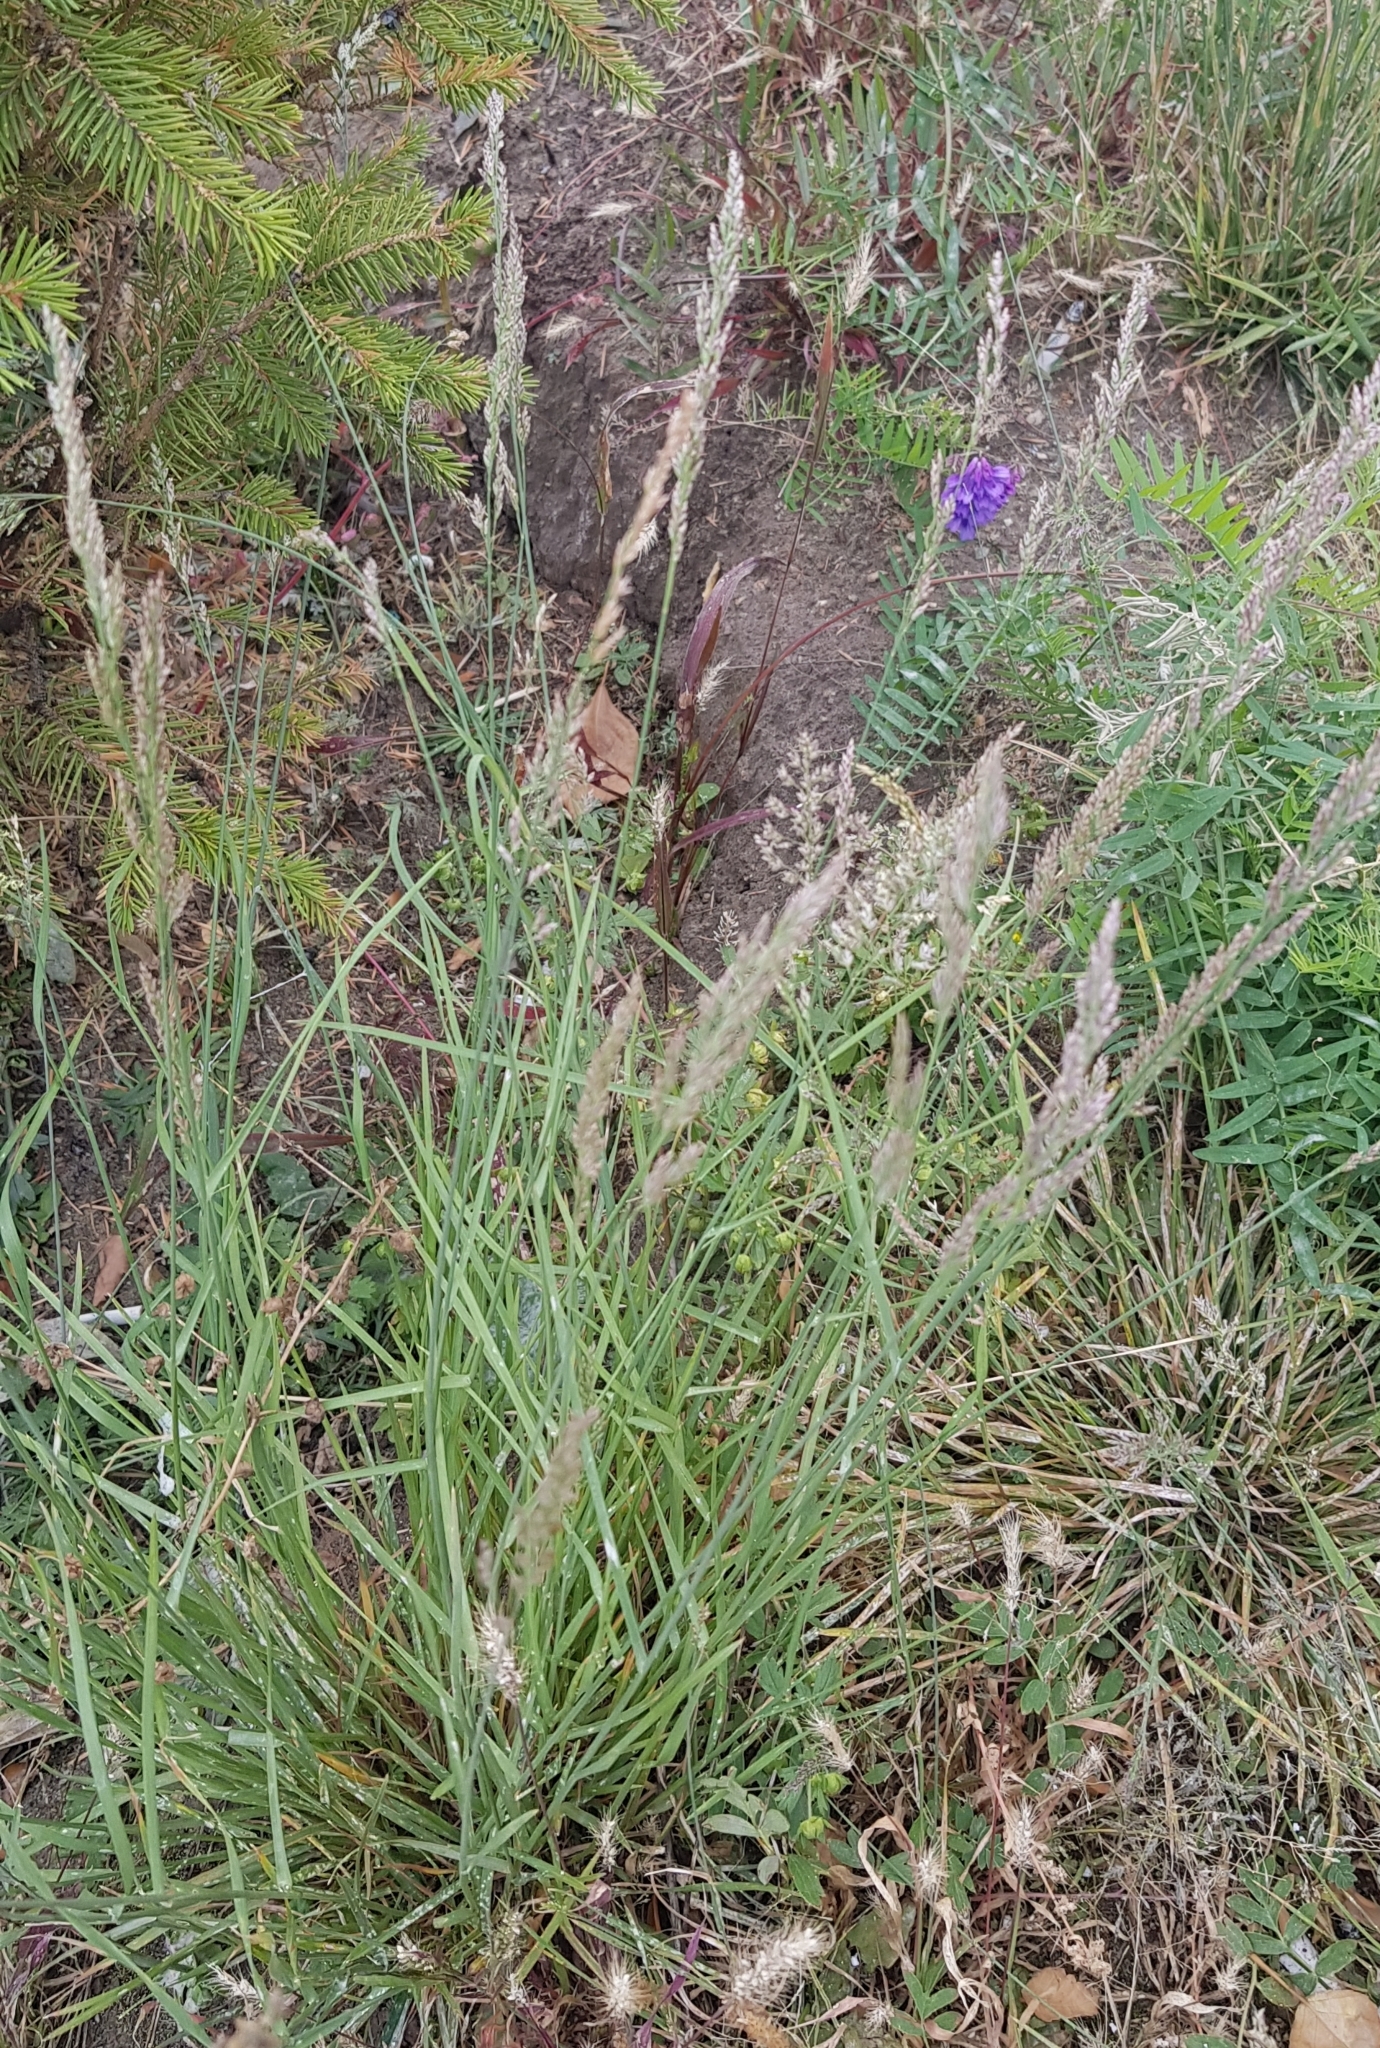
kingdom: Plantae
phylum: Tracheophyta
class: Liliopsida
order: Poales
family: Poaceae
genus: Koeleria
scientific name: Koeleria macrantha
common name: Crested hair-grass
